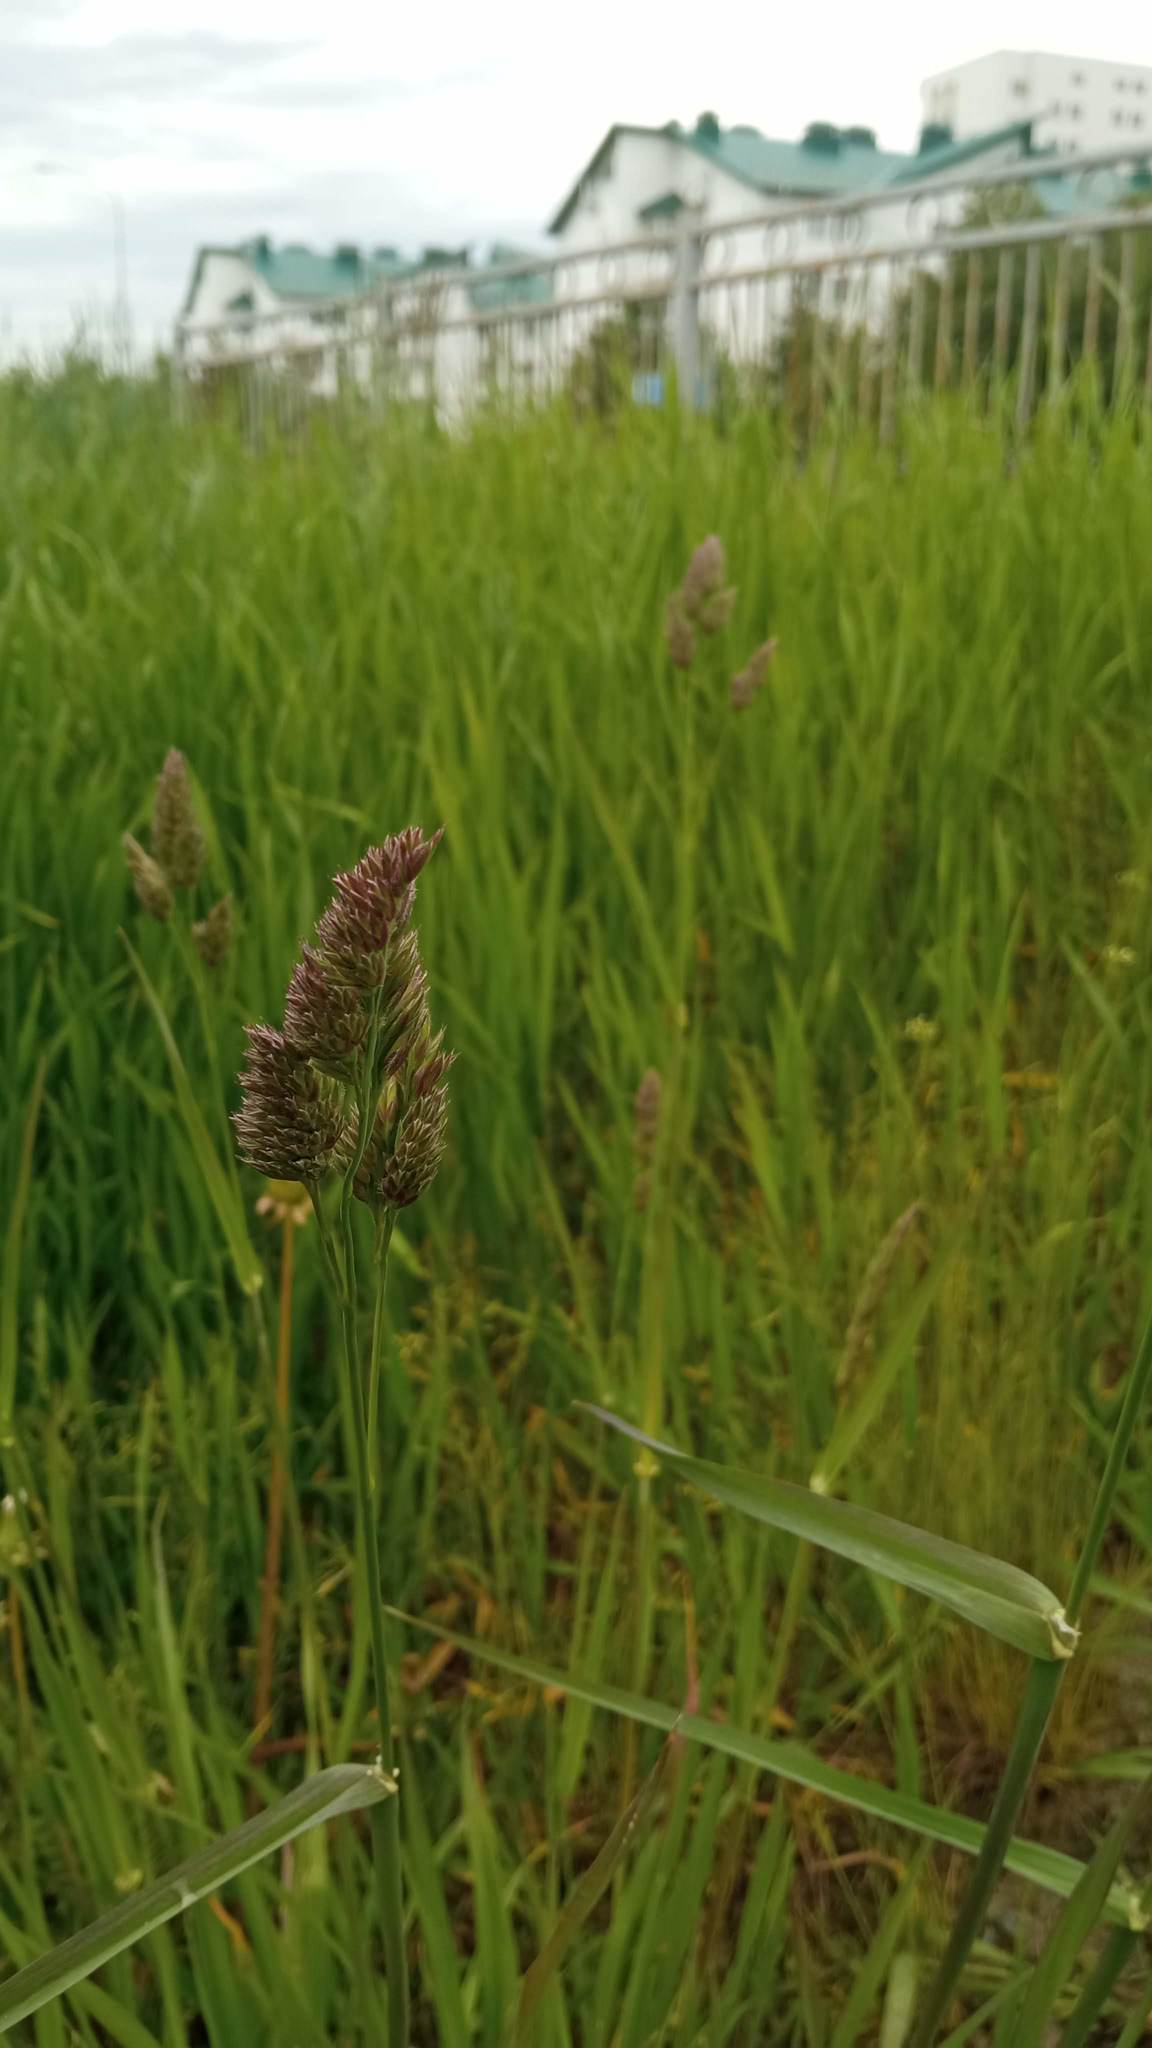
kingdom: Plantae
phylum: Tracheophyta
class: Liliopsida
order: Poales
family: Poaceae
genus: Dactylis
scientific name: Dactylis glomerata
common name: Orchardgrass
